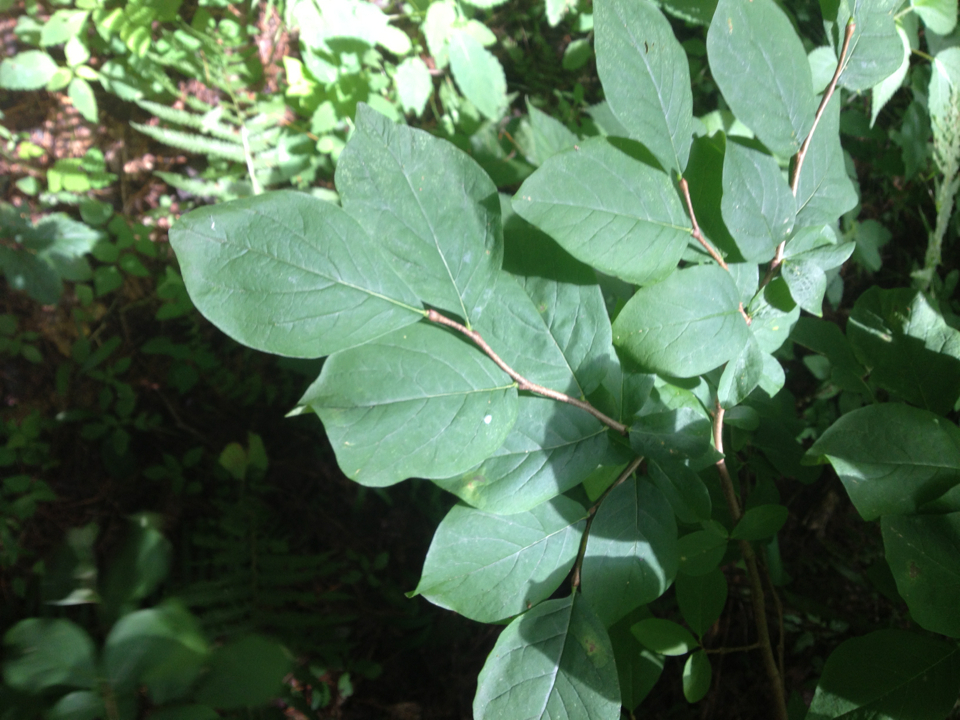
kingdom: Plantae
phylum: Tracheophyta
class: Magnoliopsida
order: Malvales
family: Thymelaeaceae
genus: Dirca
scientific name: Dirca palustris
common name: Leatherwood
